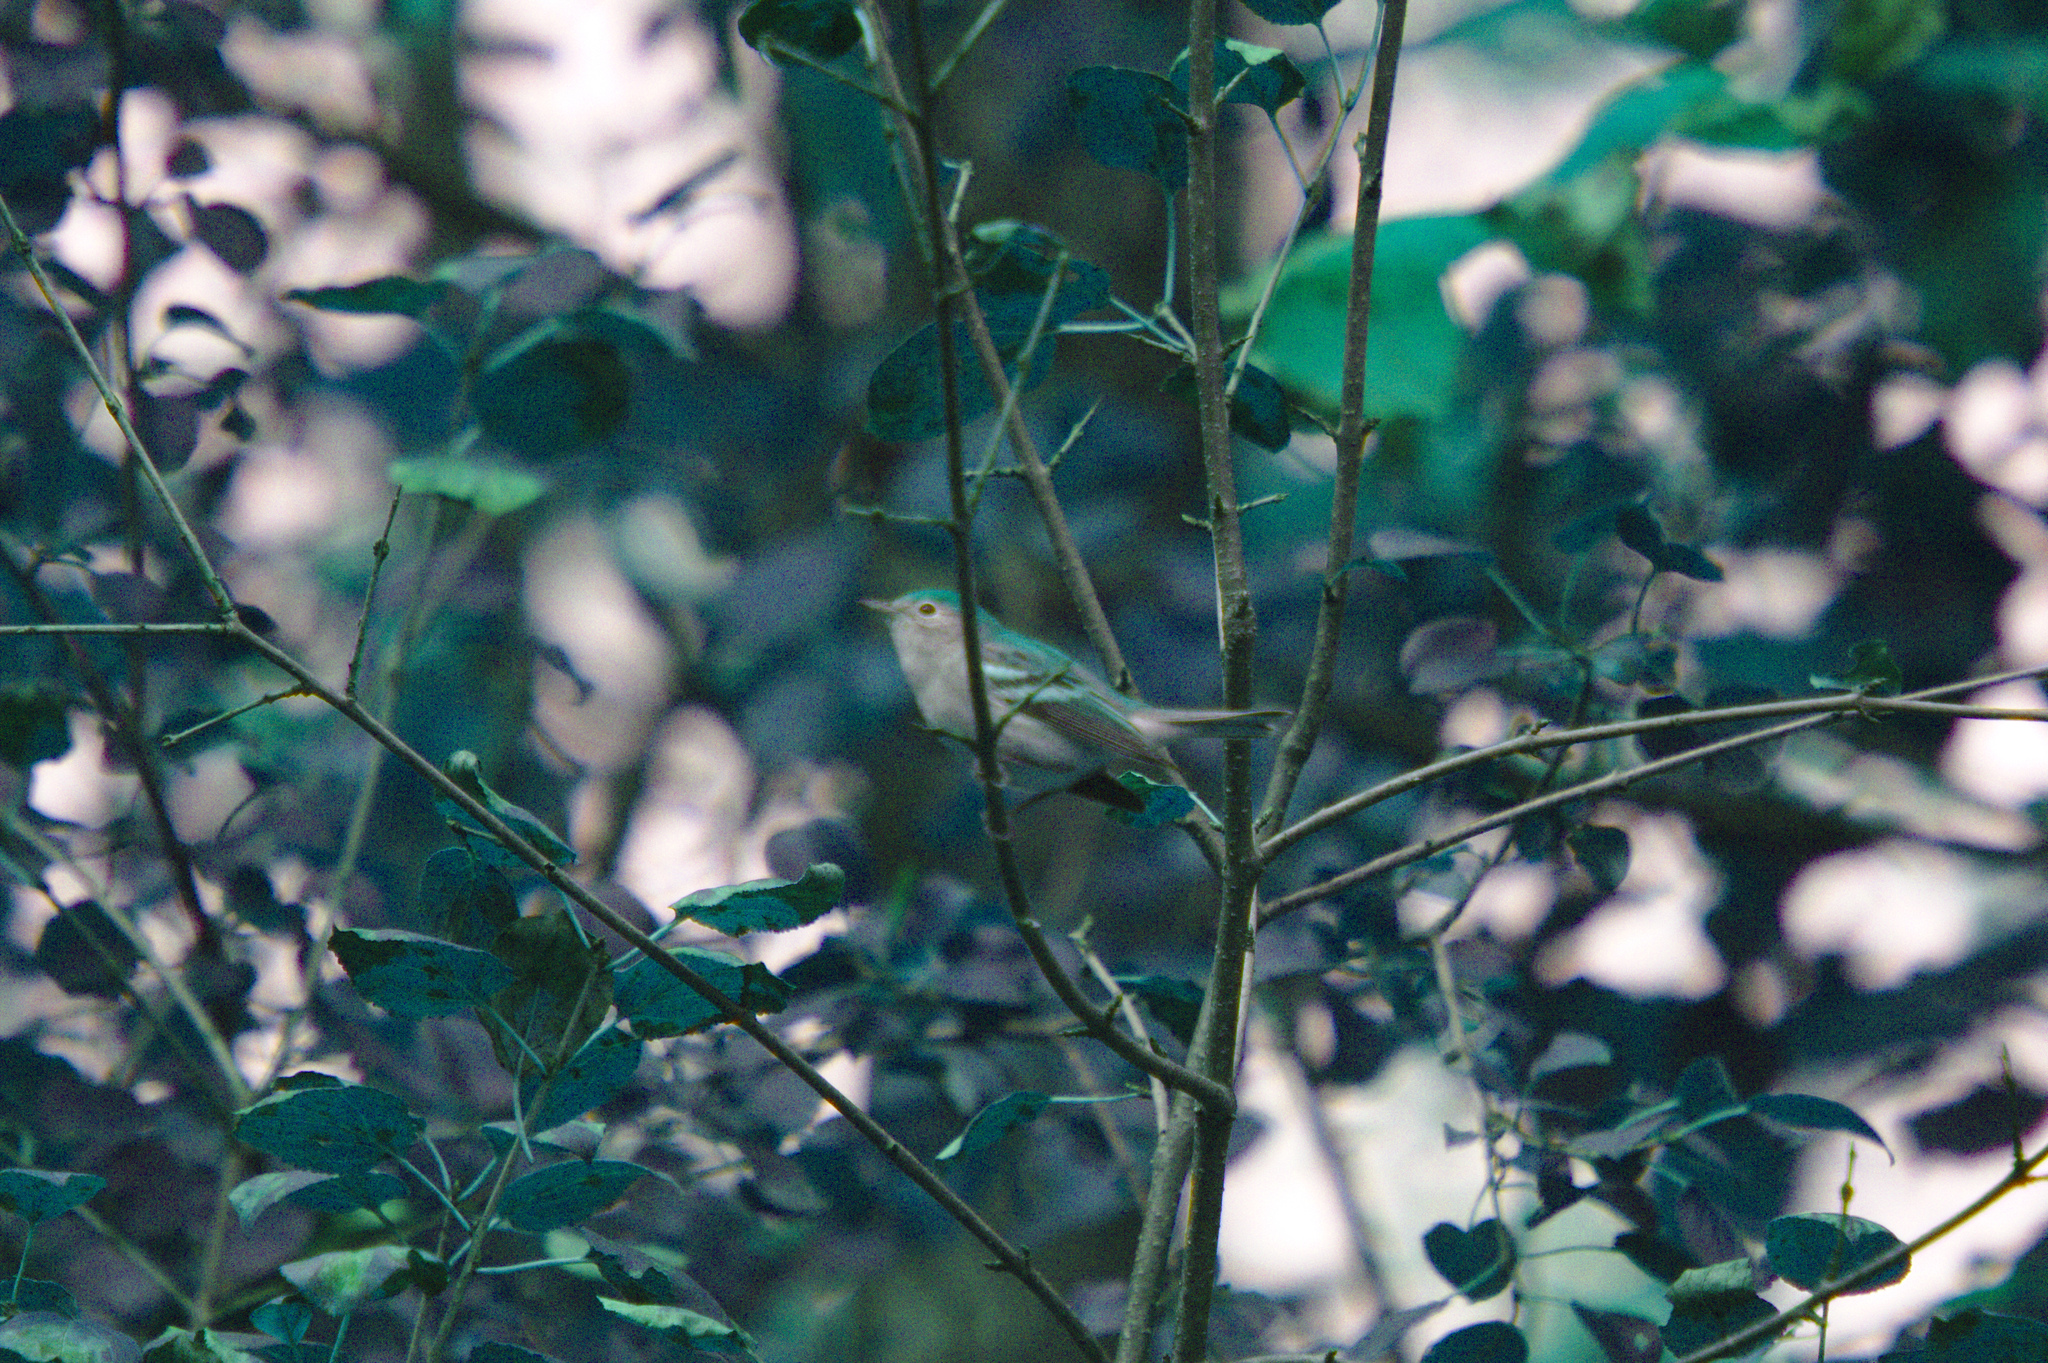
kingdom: Animalia
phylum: Chordata
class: Aves
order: Passeriformes
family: Parulidae
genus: Setophaga
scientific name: Setophaga pensylvanica
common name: Chestnut-sided warbler
